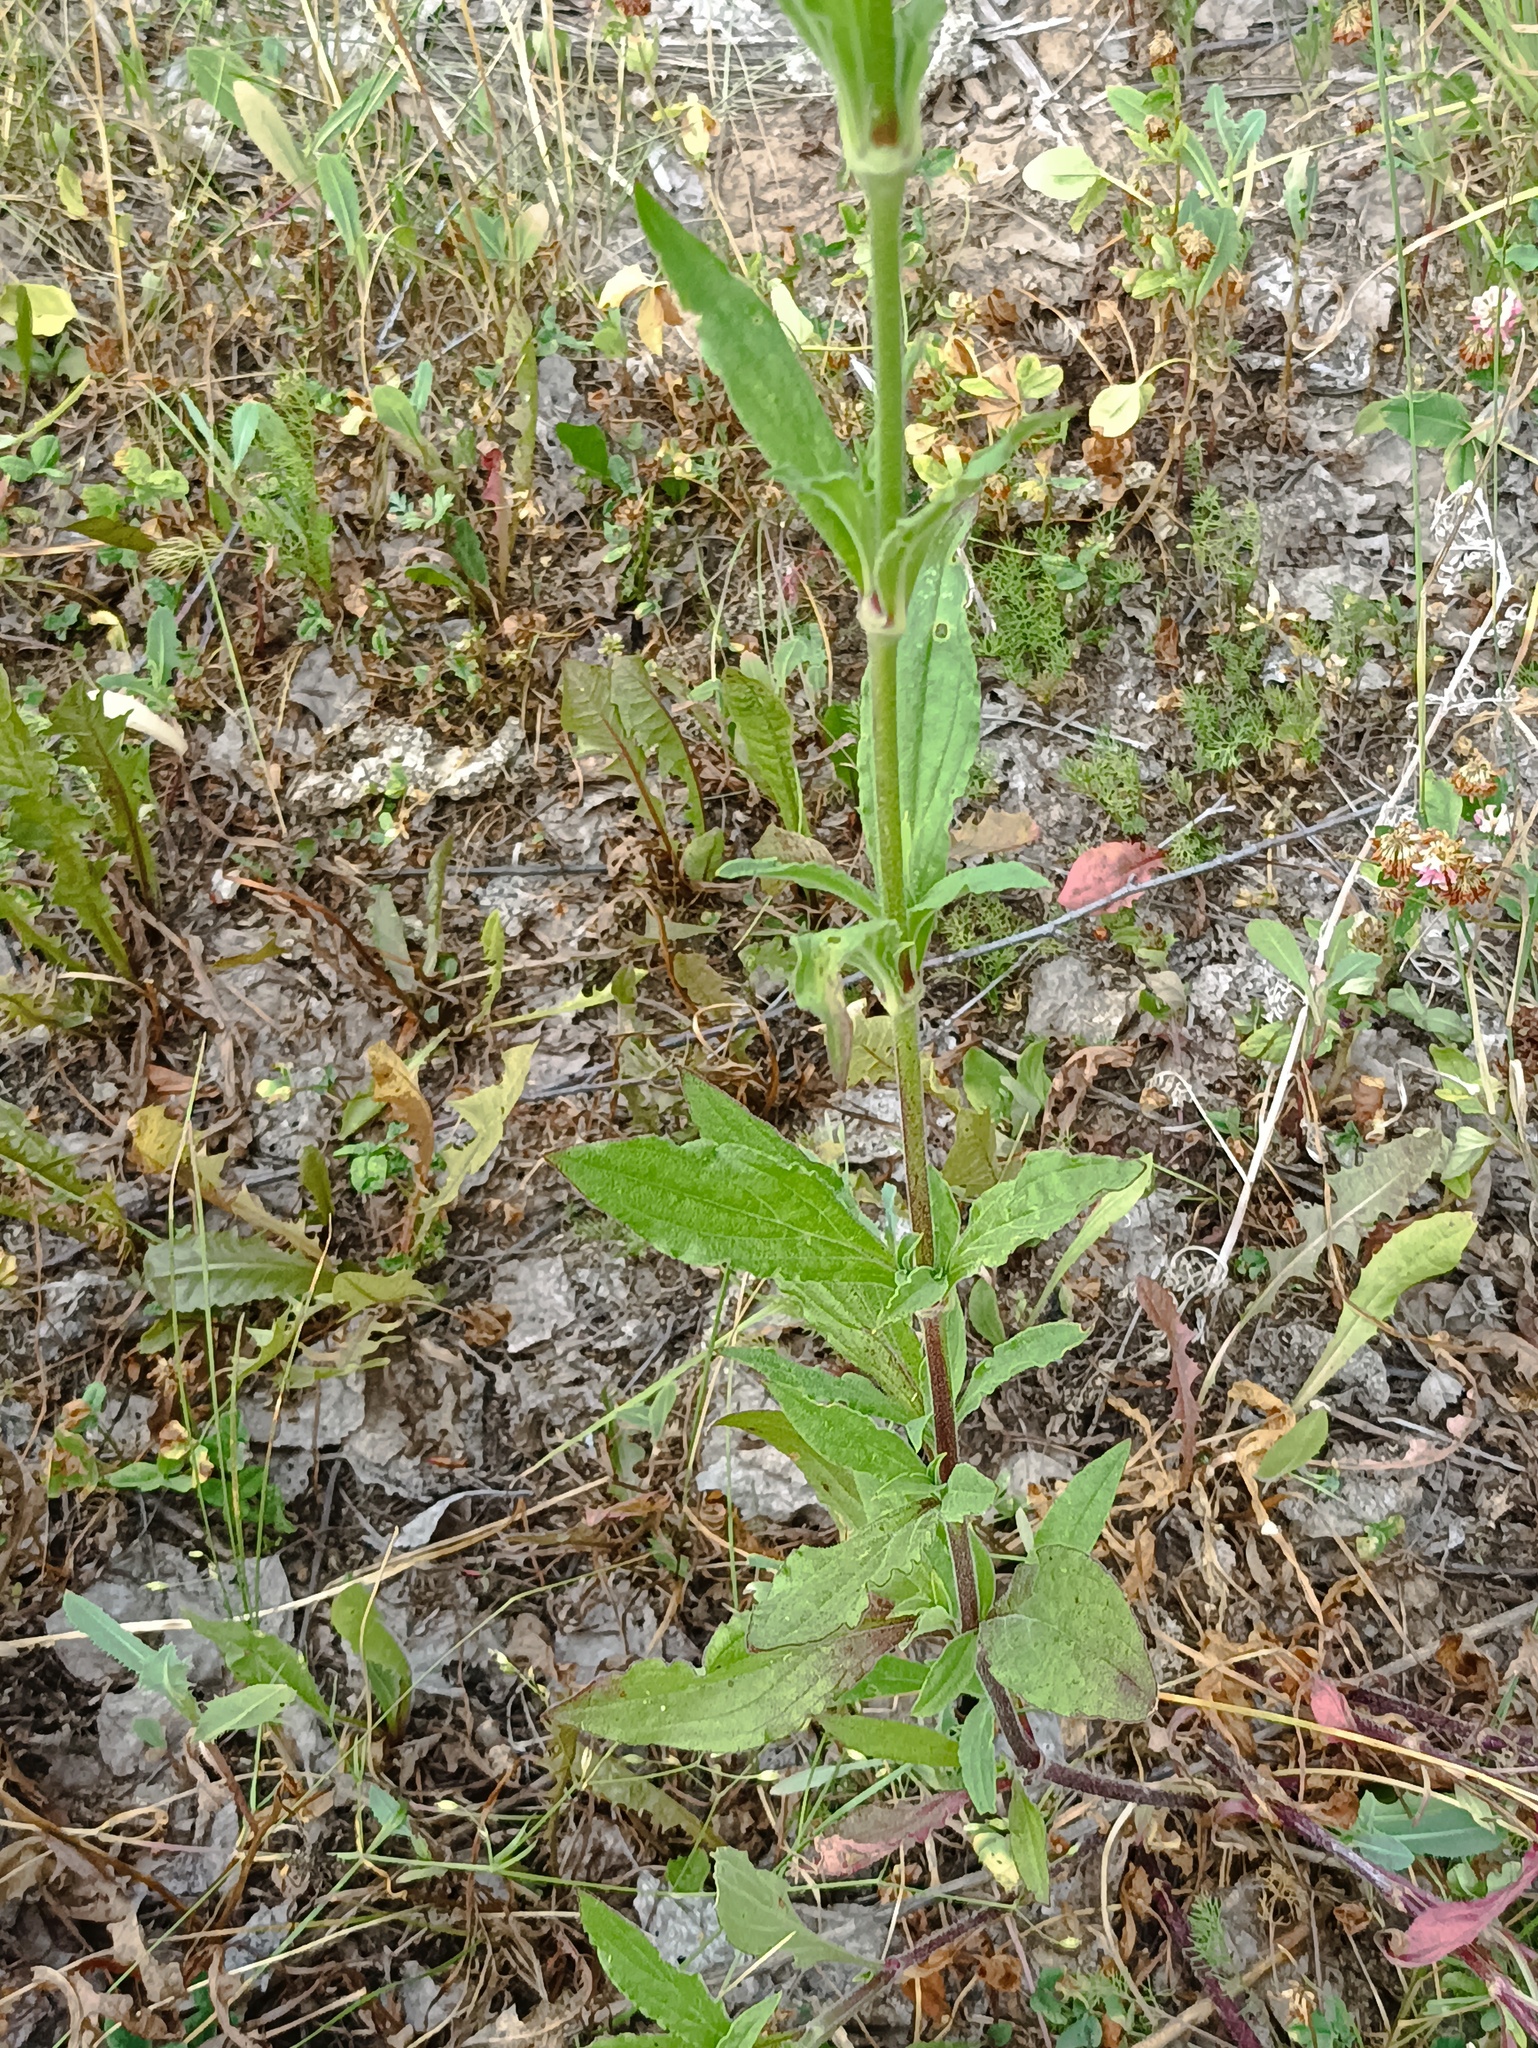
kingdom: Plantae
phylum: Tracheophyta
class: Magnoliopsida
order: Caryophyllales
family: Caryophyllaceae
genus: Silene
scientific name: Silene latifolia
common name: White campion
